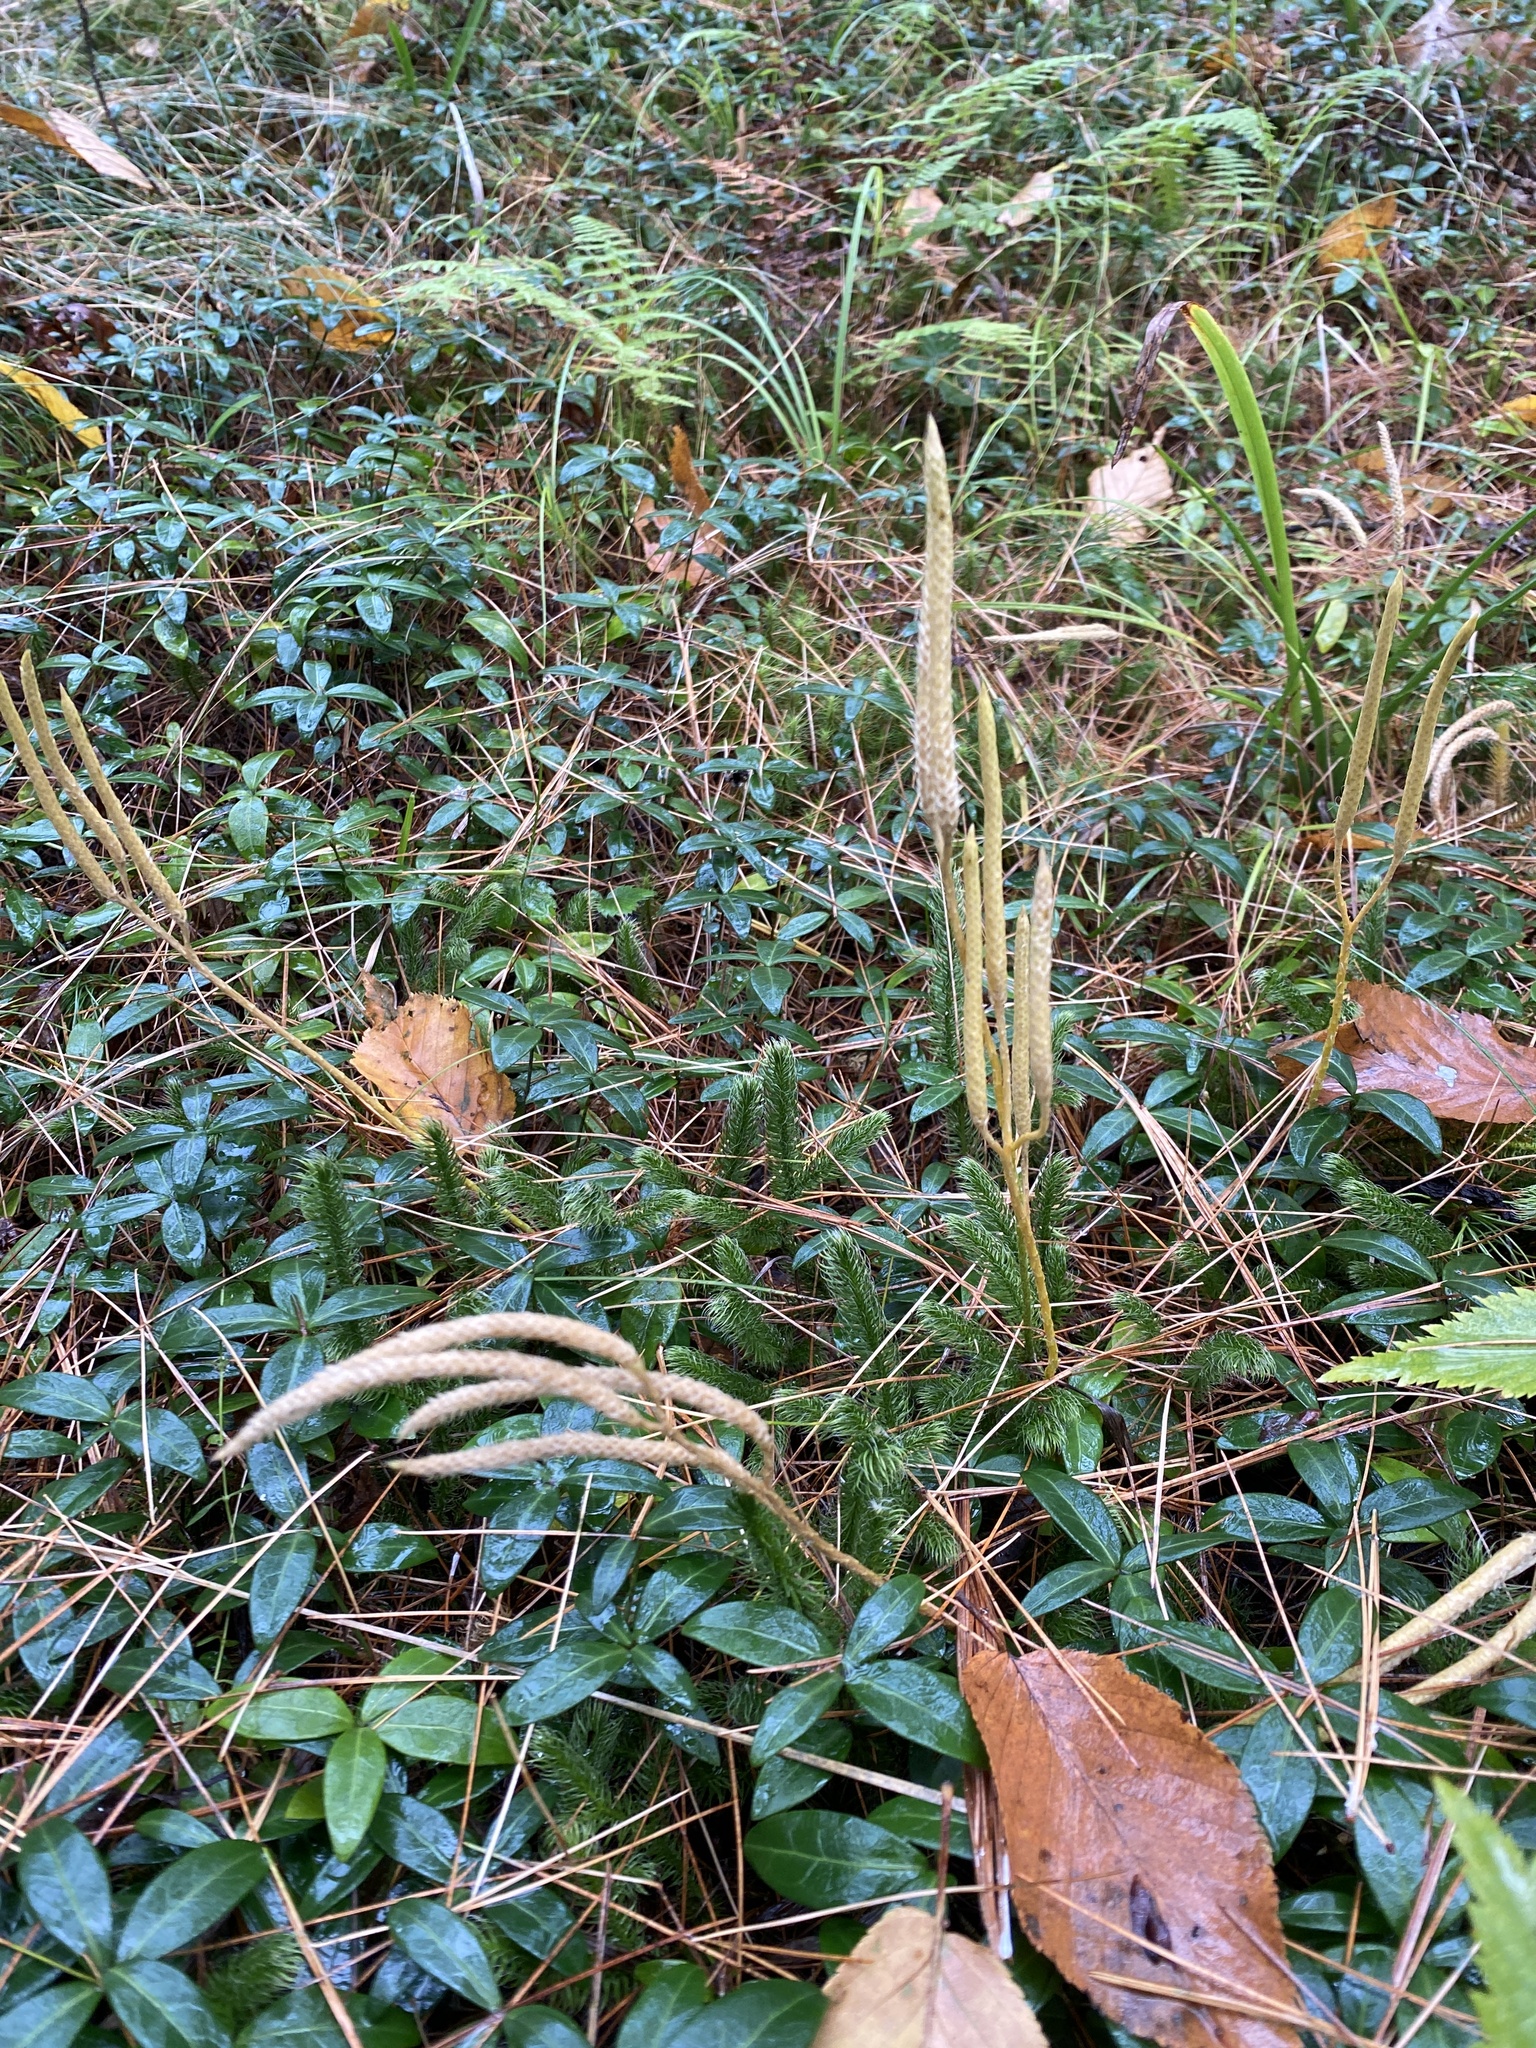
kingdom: Plantae
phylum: Tracheophyta
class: Lycopodiopsida
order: Lycopodiales
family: Lycopodiaceae
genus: Lycopodium
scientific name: Lycopodium clavatum
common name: Stag's-horn clubmoss
